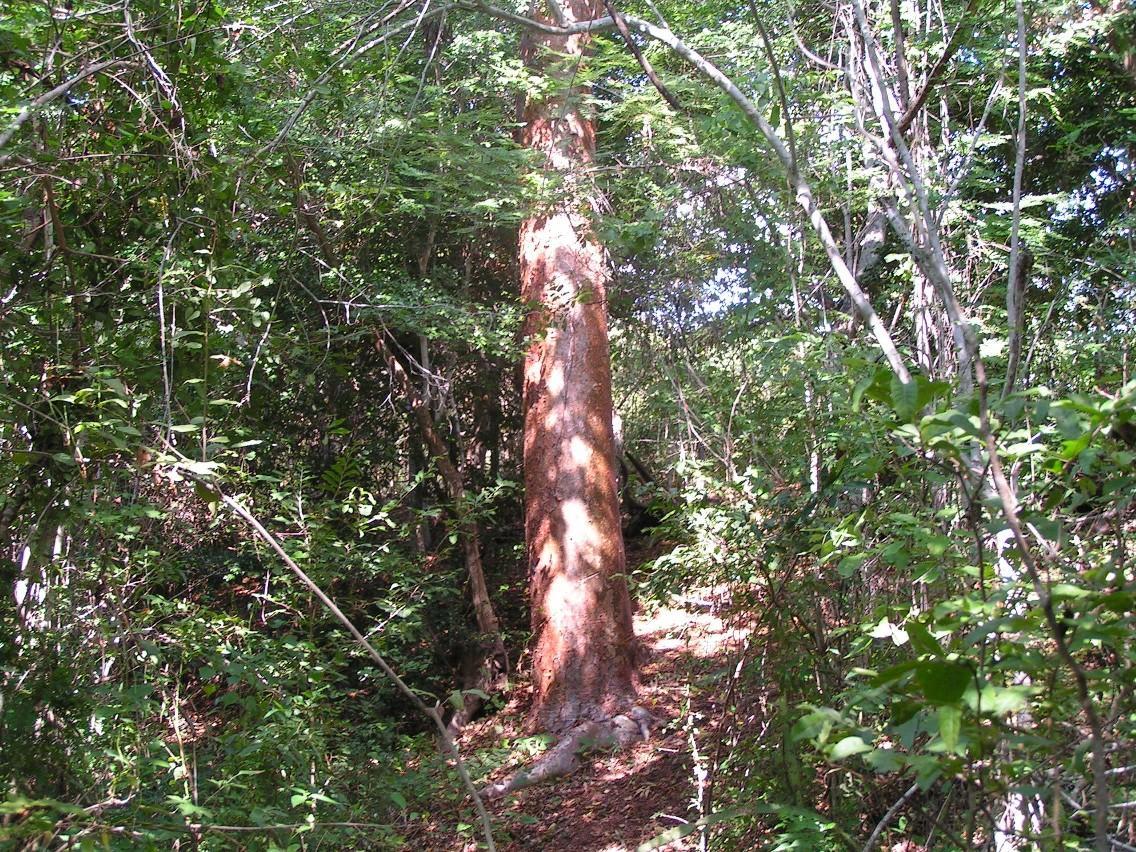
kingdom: Plantae
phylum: Tracheophyta
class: Magnoliopsida
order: Sapindales
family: Burseraceae
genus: Bursera
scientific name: Bursera
